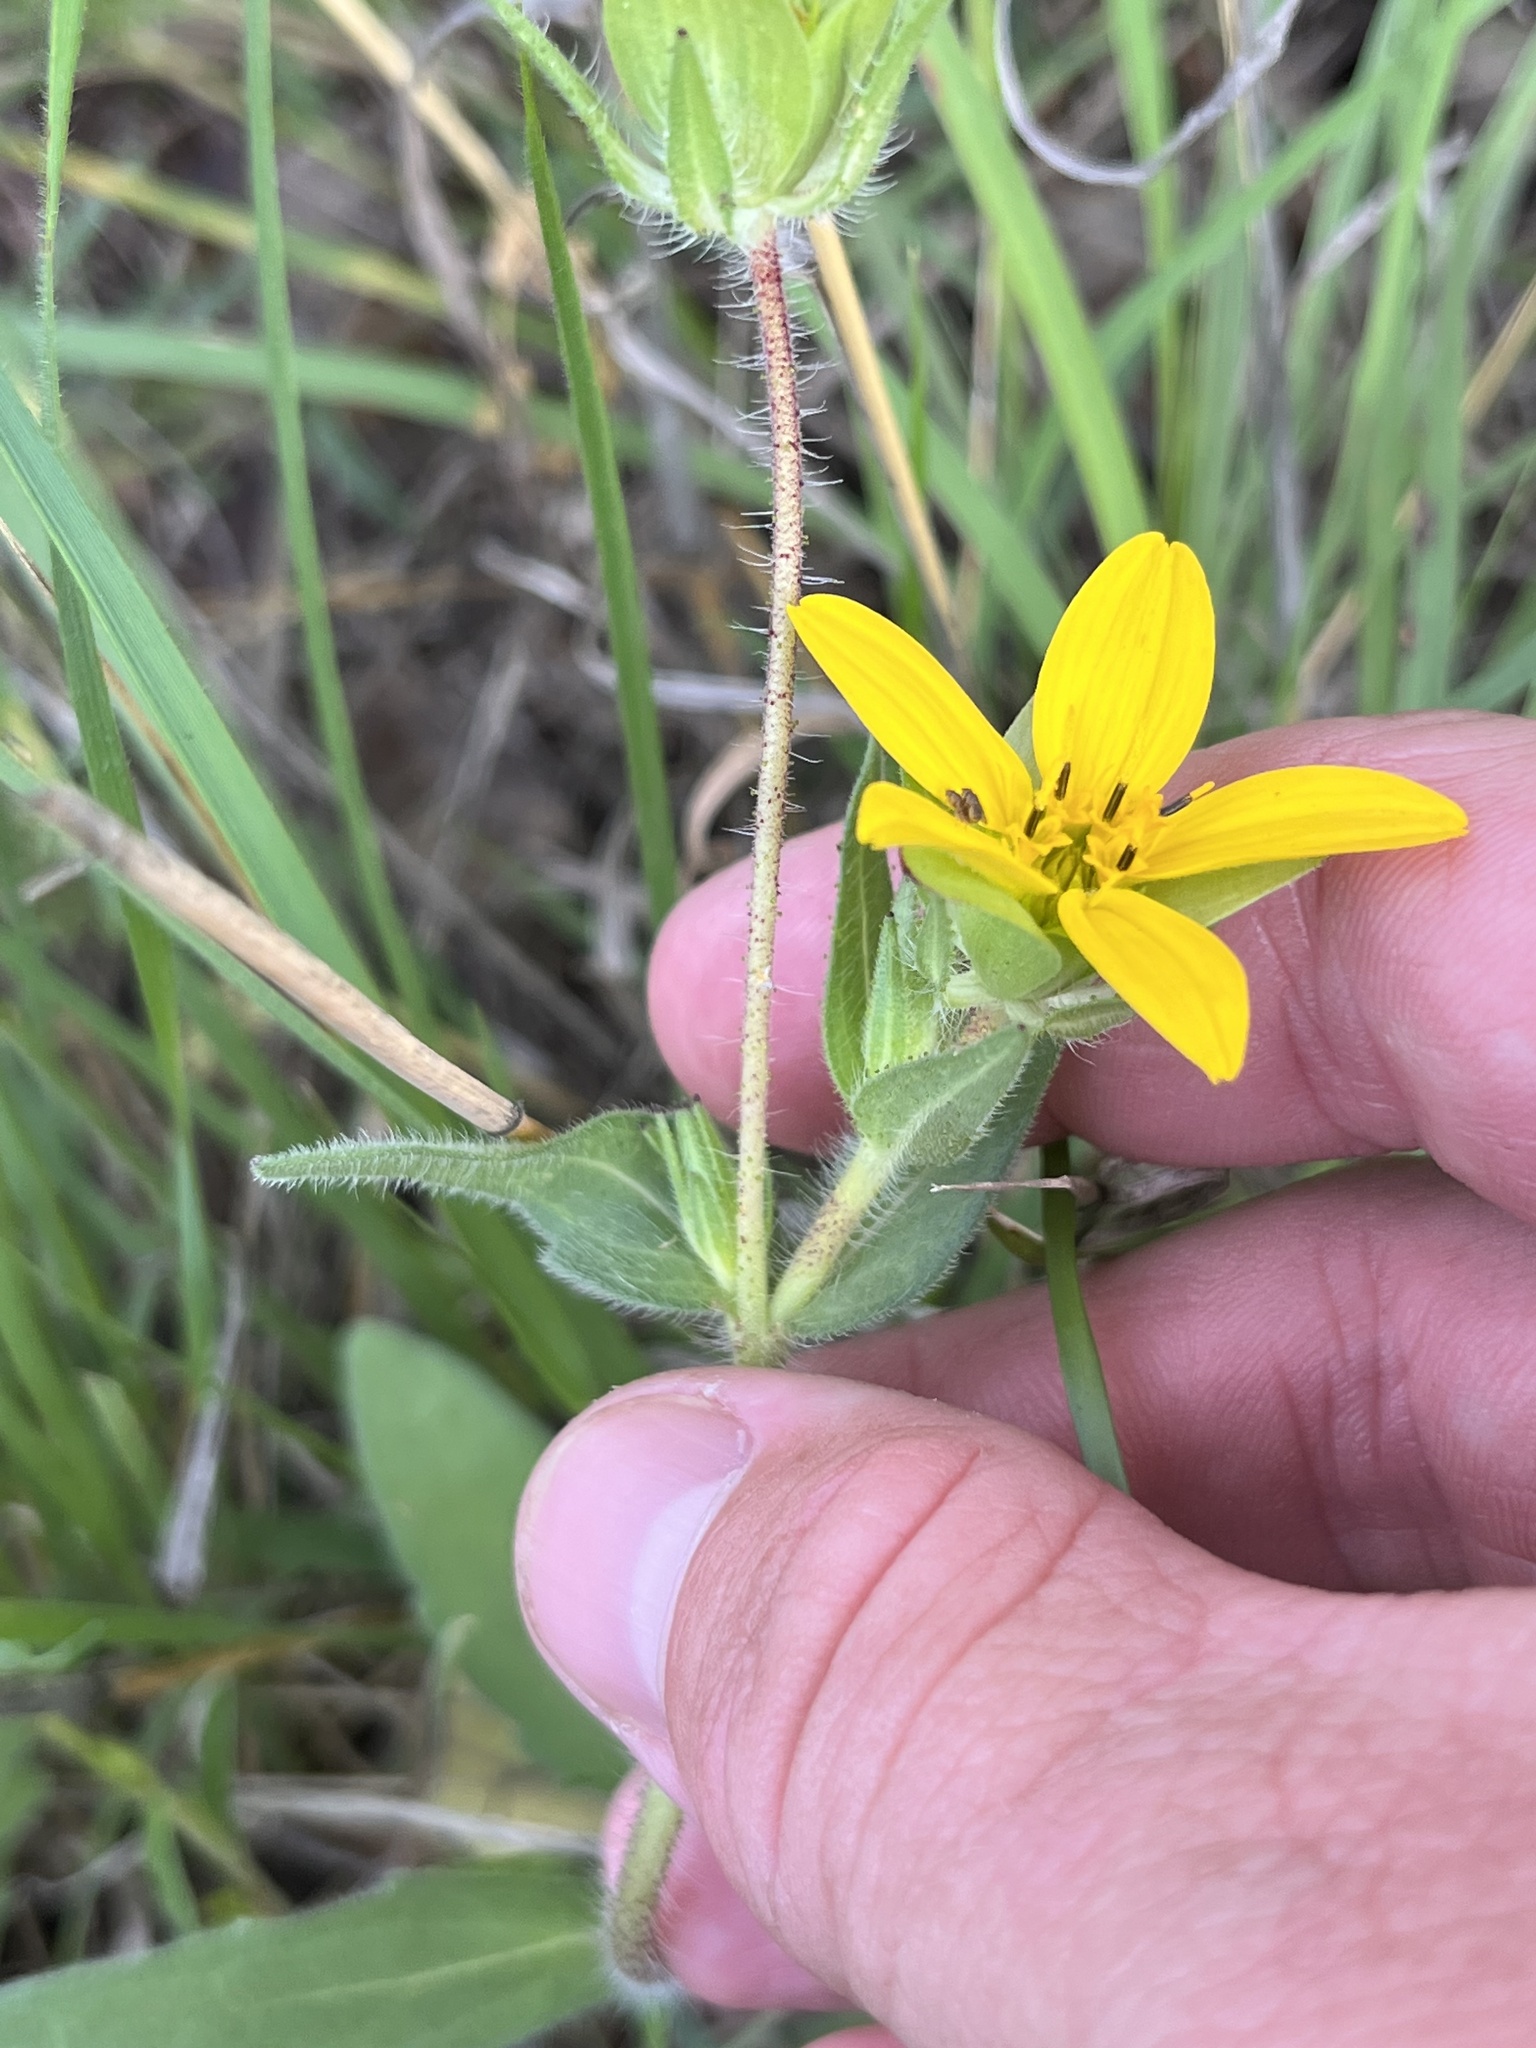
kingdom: Plantae
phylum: Tracheophyta
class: Magnoliopsida
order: Asterales
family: Asteraceae
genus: Lindheimera
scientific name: Lindheimera texana
